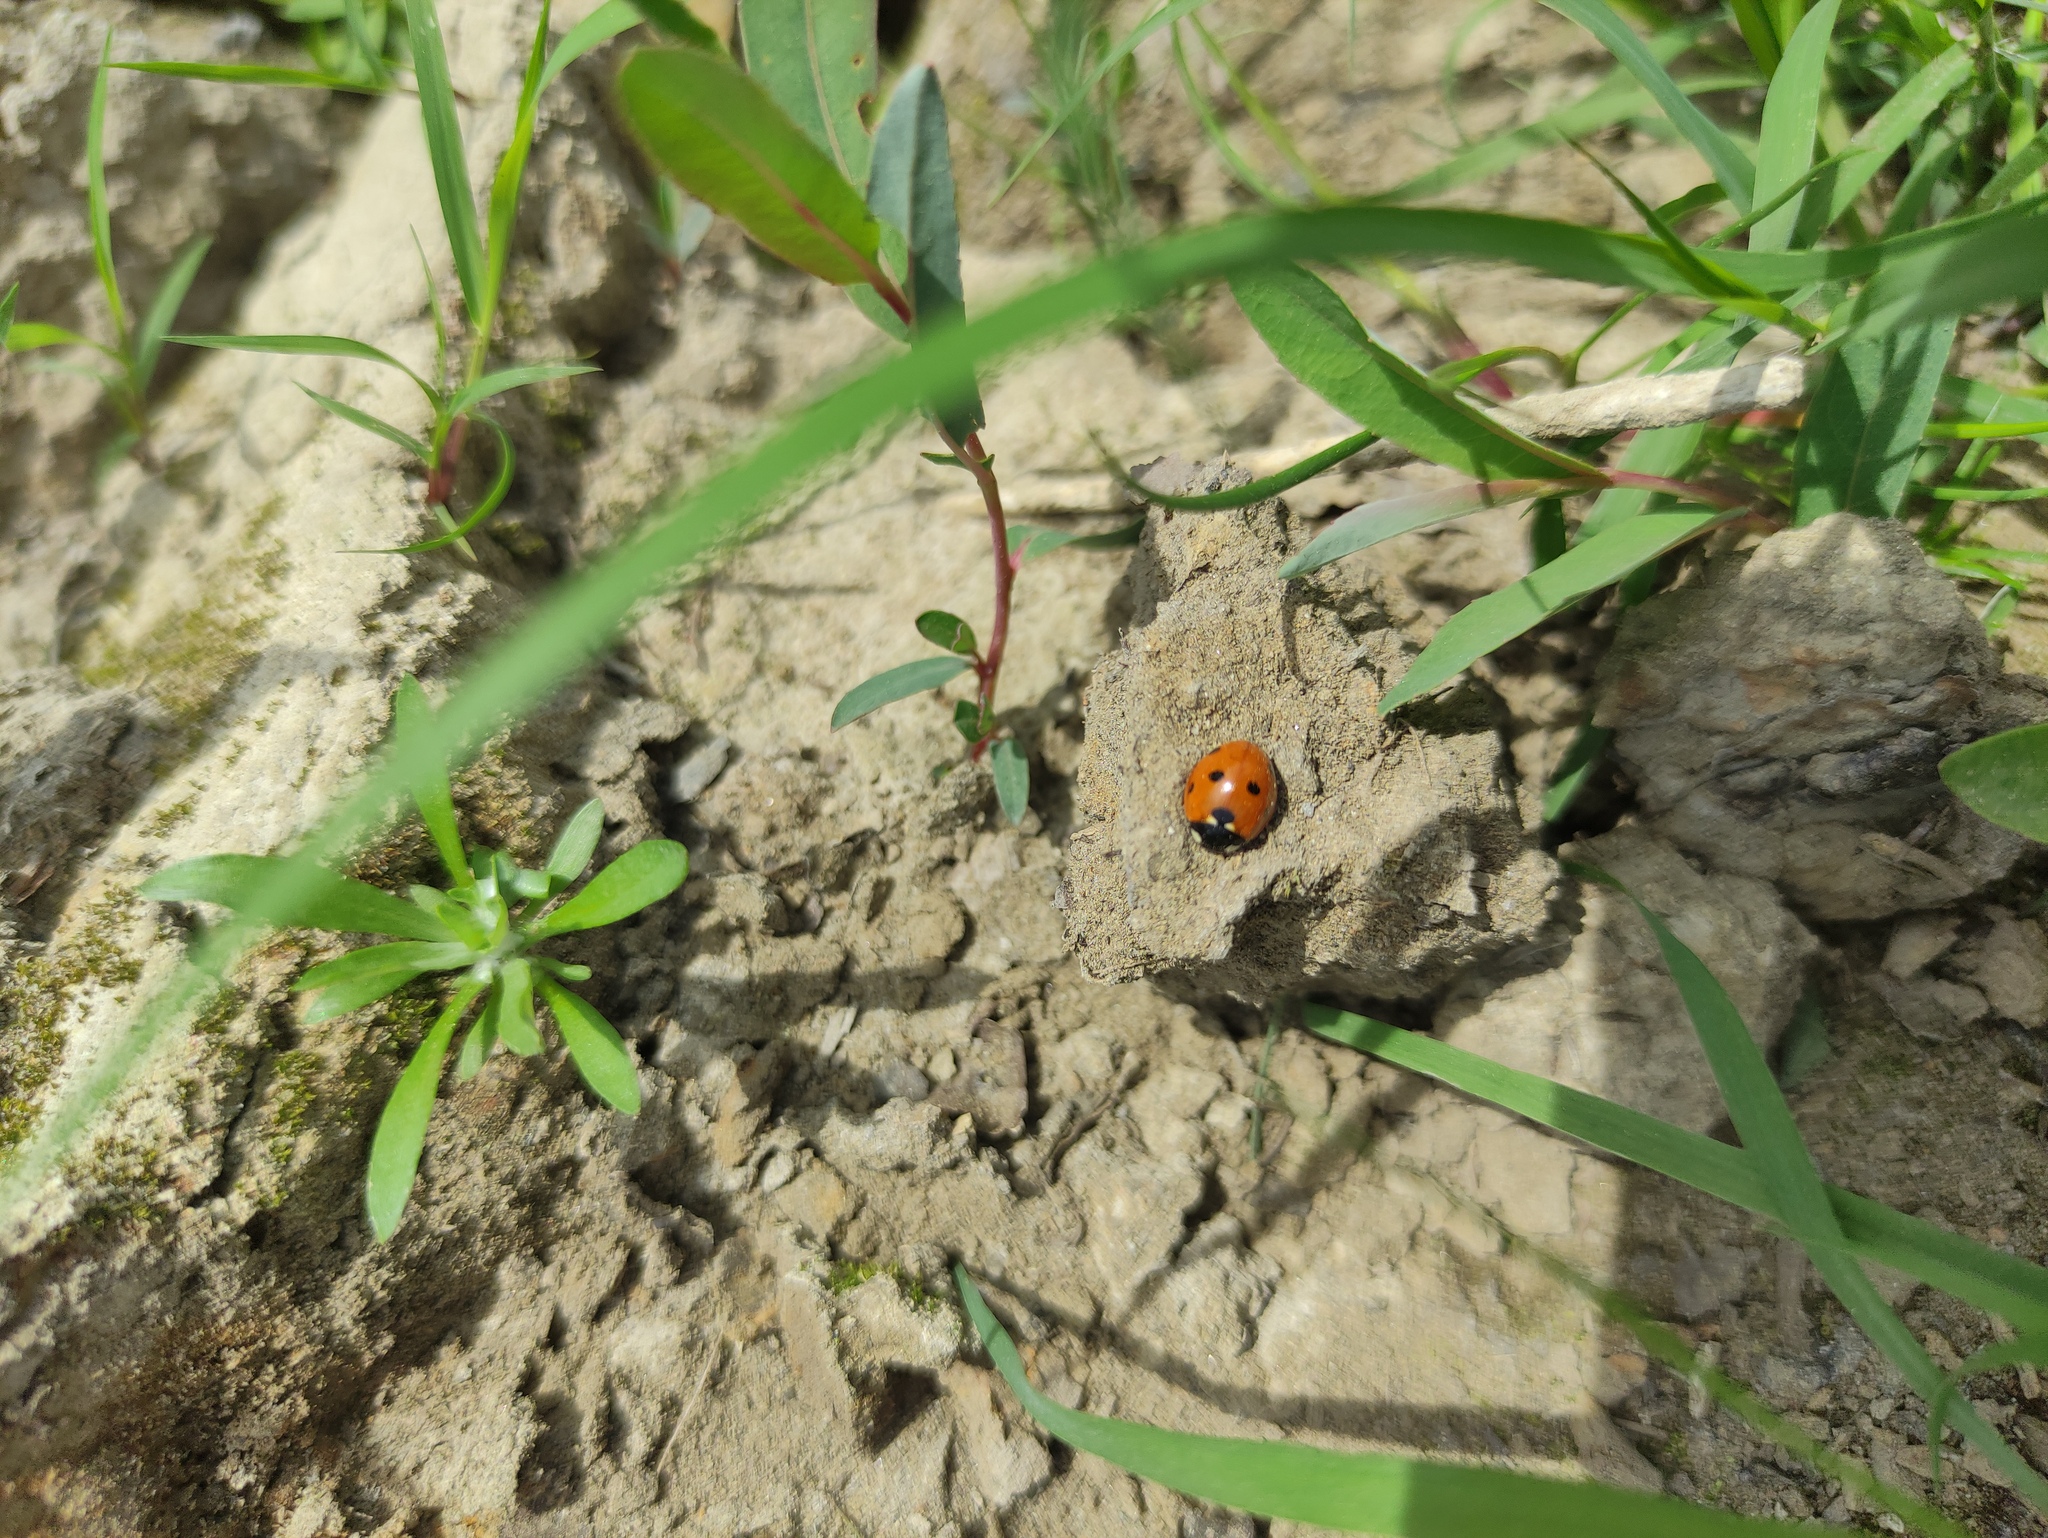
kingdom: Animalia
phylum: Arthropoda
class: Insecta
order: Coleoptera
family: Coccinellidae
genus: Coccinella
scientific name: Coccinella septempunctata
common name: Sevenspotted lady beetle
